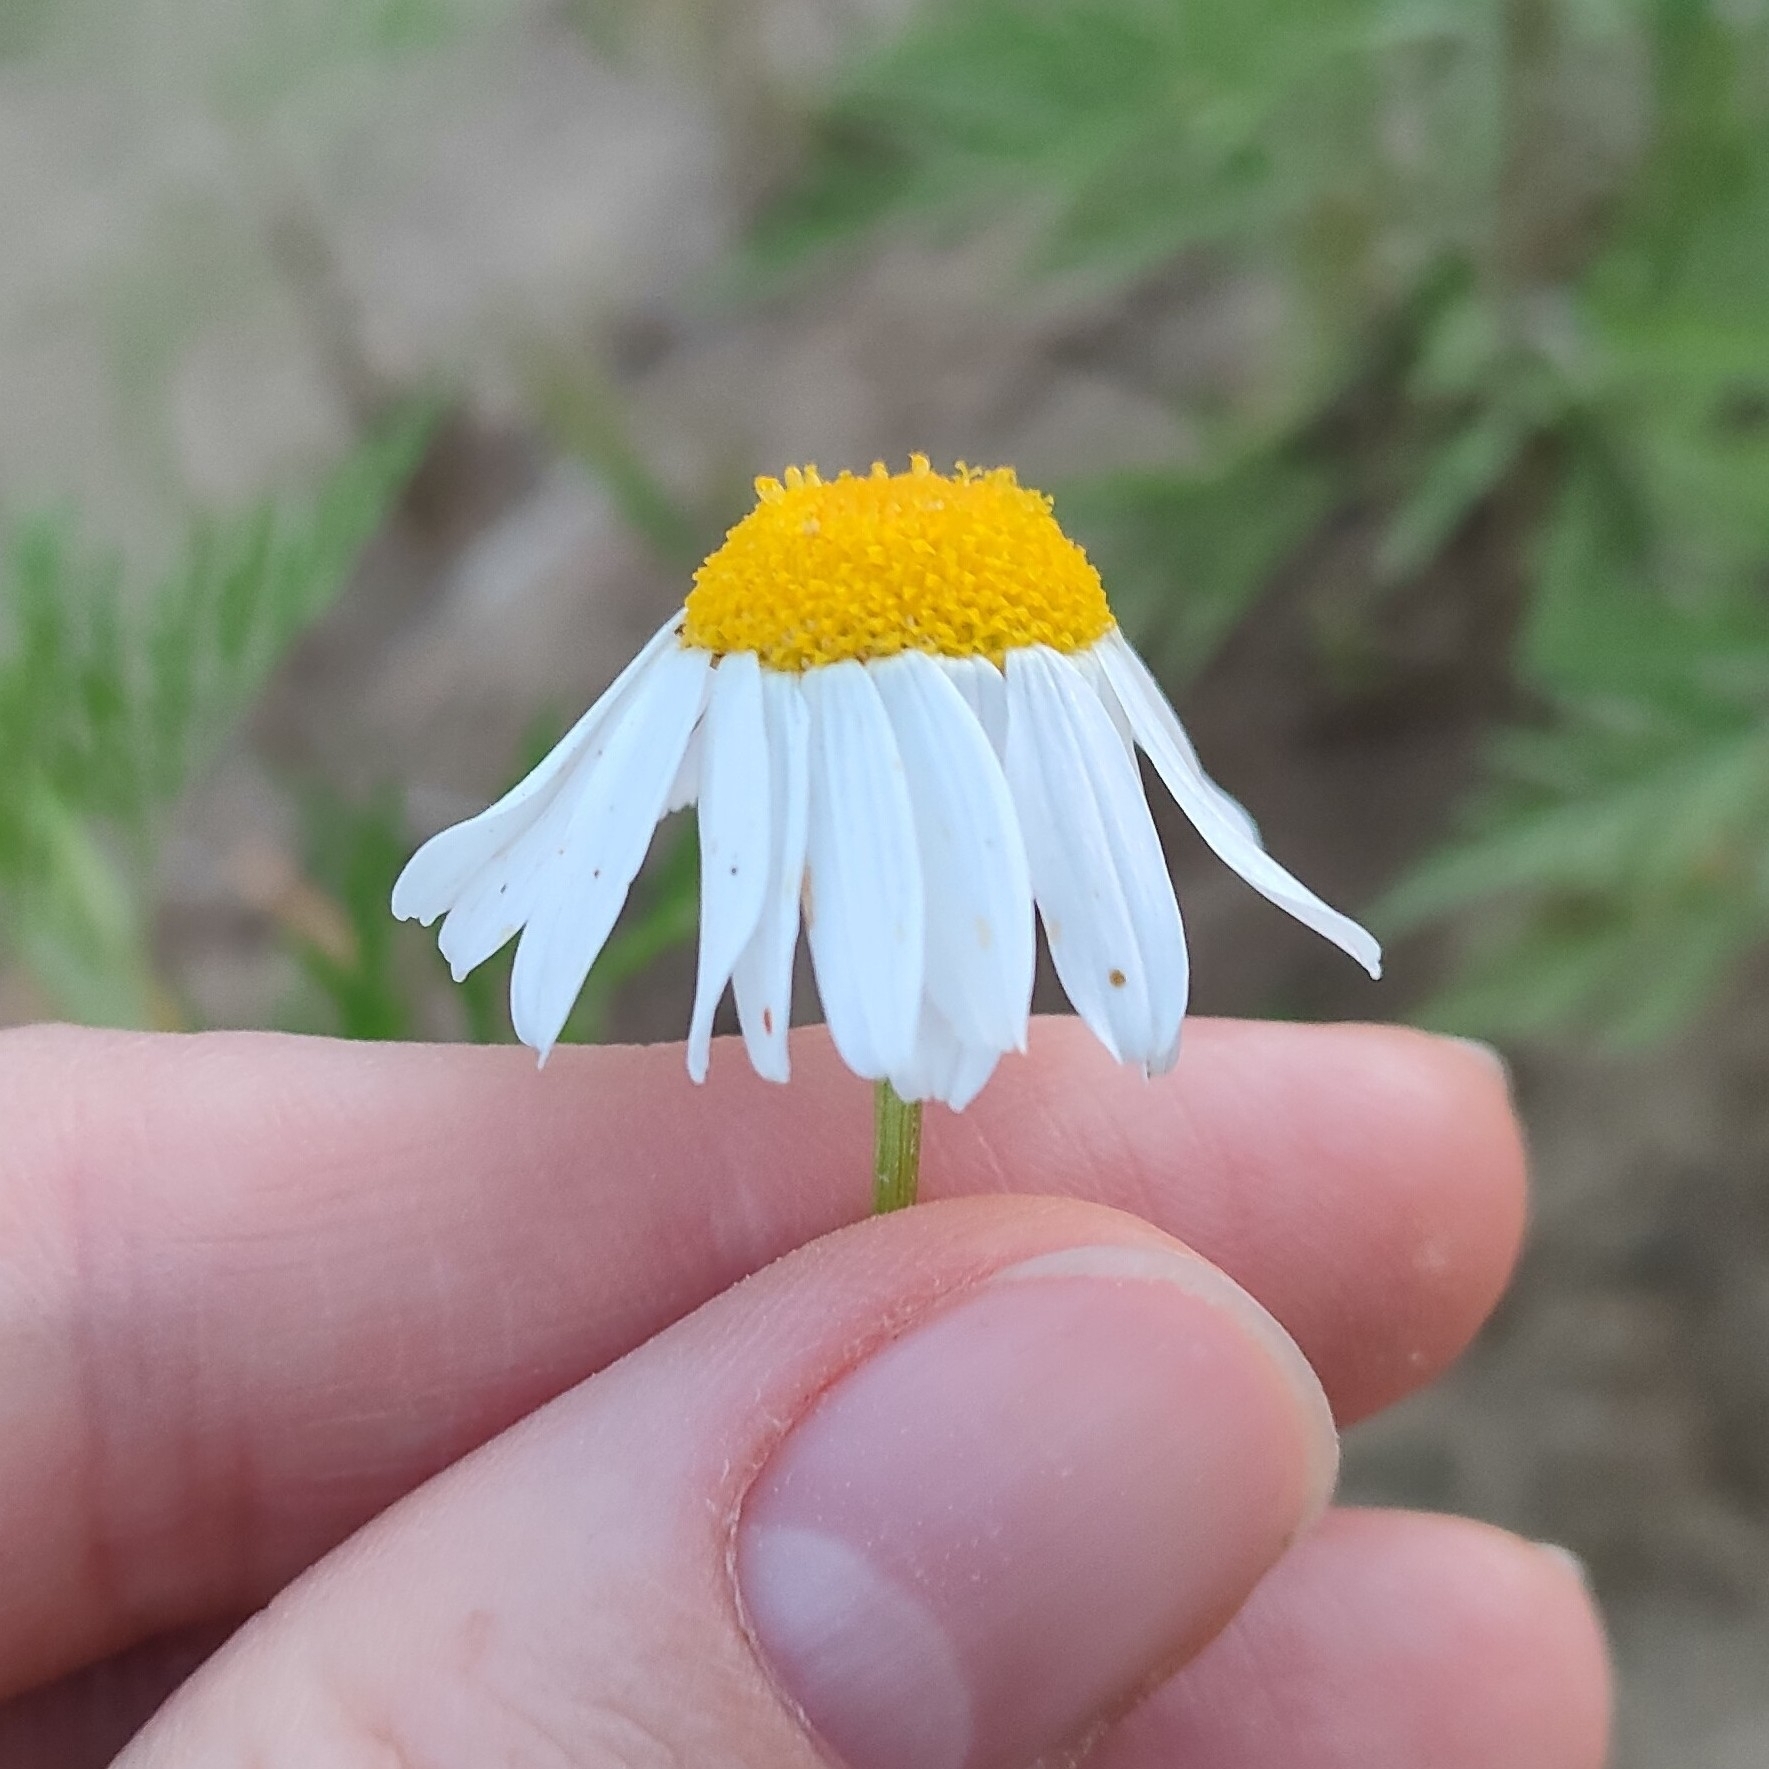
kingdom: Plantae
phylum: Tracheophyta
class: Magnoliopsida
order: Asterales
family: Asteraceae
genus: Tripleurospermum
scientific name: Tripleurospermum inodorum
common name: Scentless mayweed
